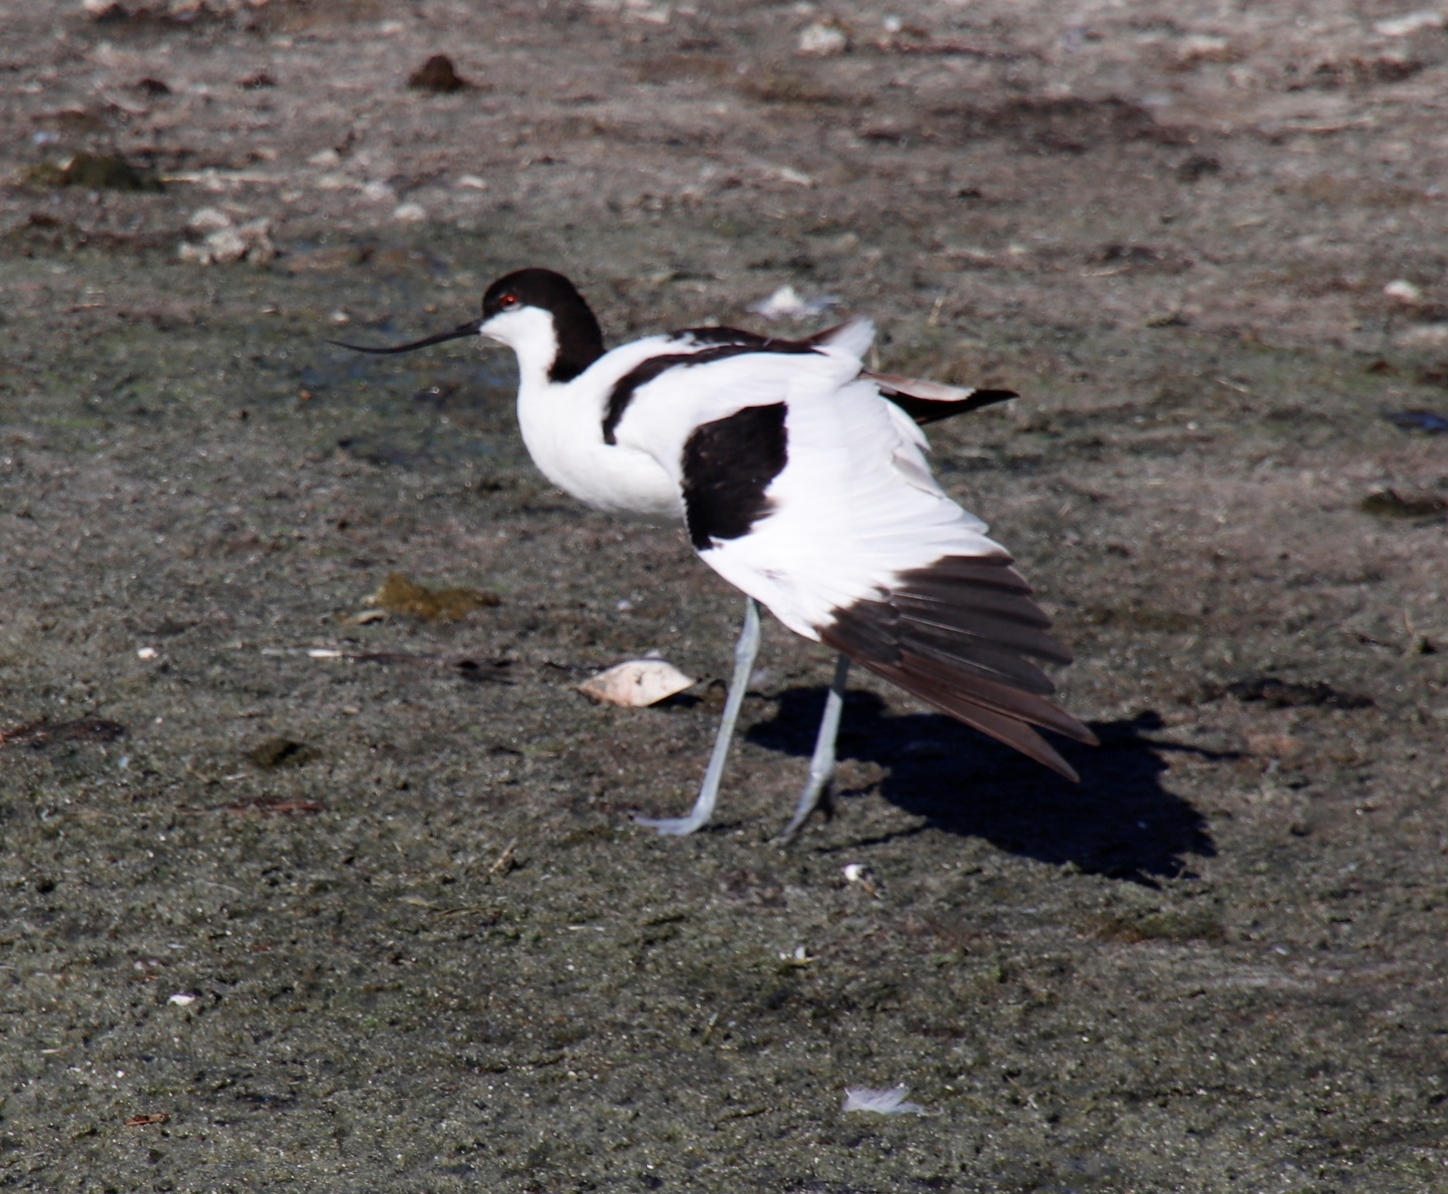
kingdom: Animalia
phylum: Chordata
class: Aves
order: Charadriiformes
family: Recurvirostridae
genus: Recurvirostra
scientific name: Recurvirostra avosetta
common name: Pied avocet
